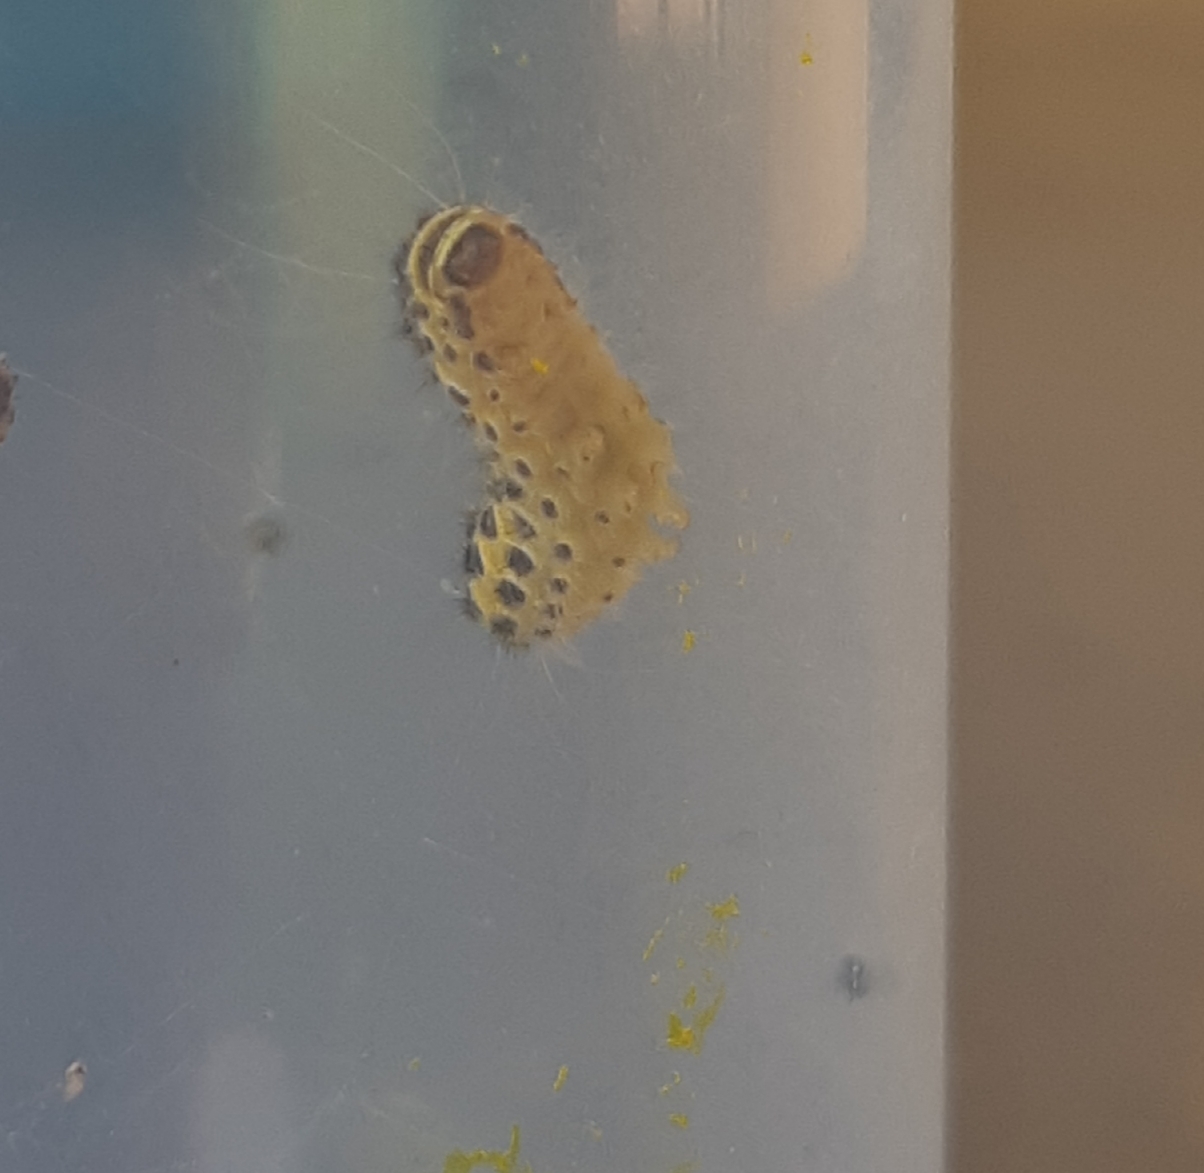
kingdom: Animalia
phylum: Arthropoda
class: Insecta
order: Lepidoptera
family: Zygaenidae
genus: Harrisina
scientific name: Harrisina americana
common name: Grapeleaf skeletonizer moth
